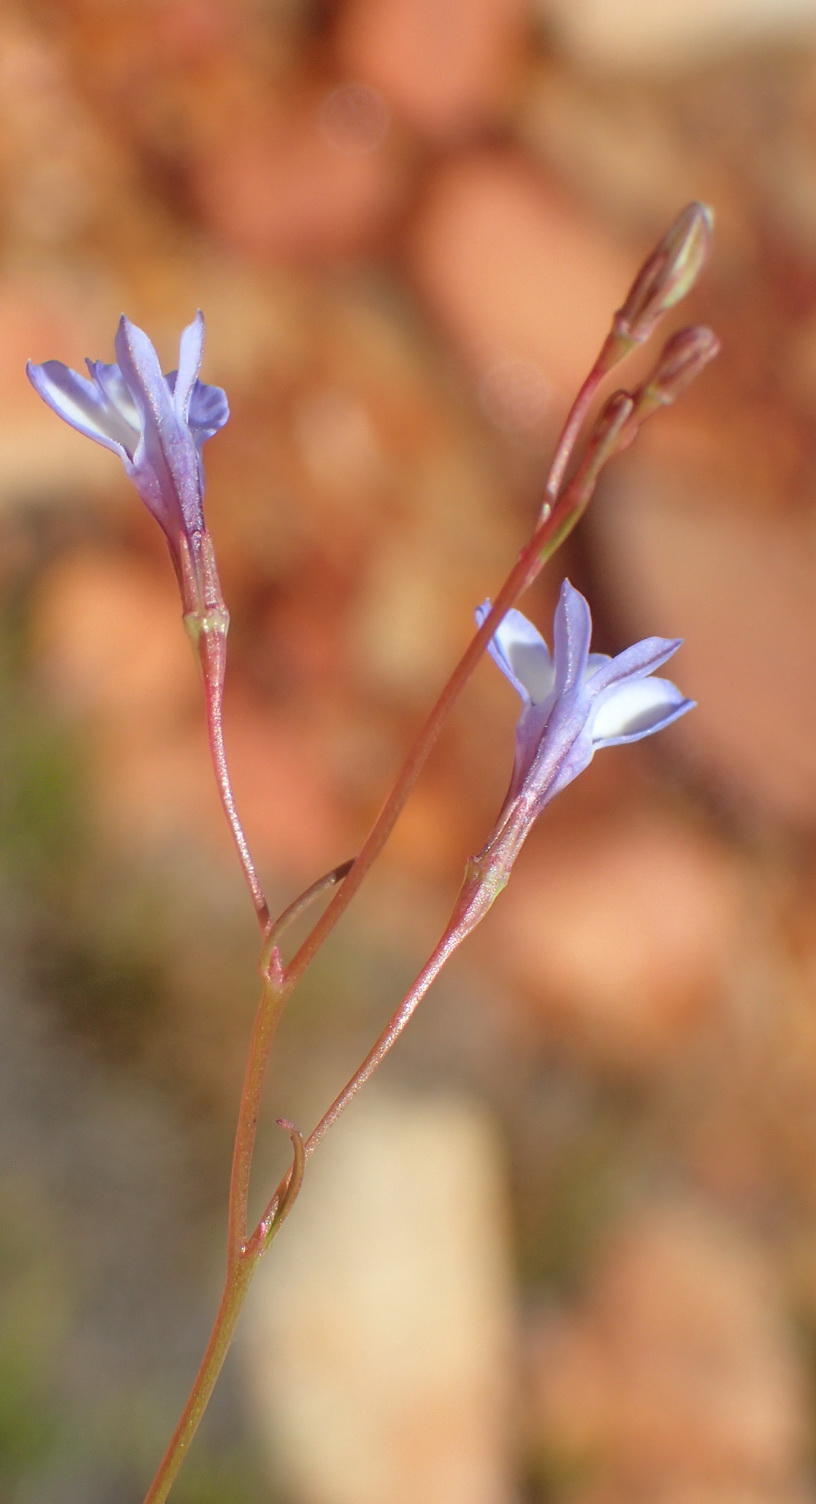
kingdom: Plantae
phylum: Tracheophyta
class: Magnoliopsida
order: Asterales
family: Campanulaceae
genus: Wimmerella
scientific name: Wimmerella arabidea
